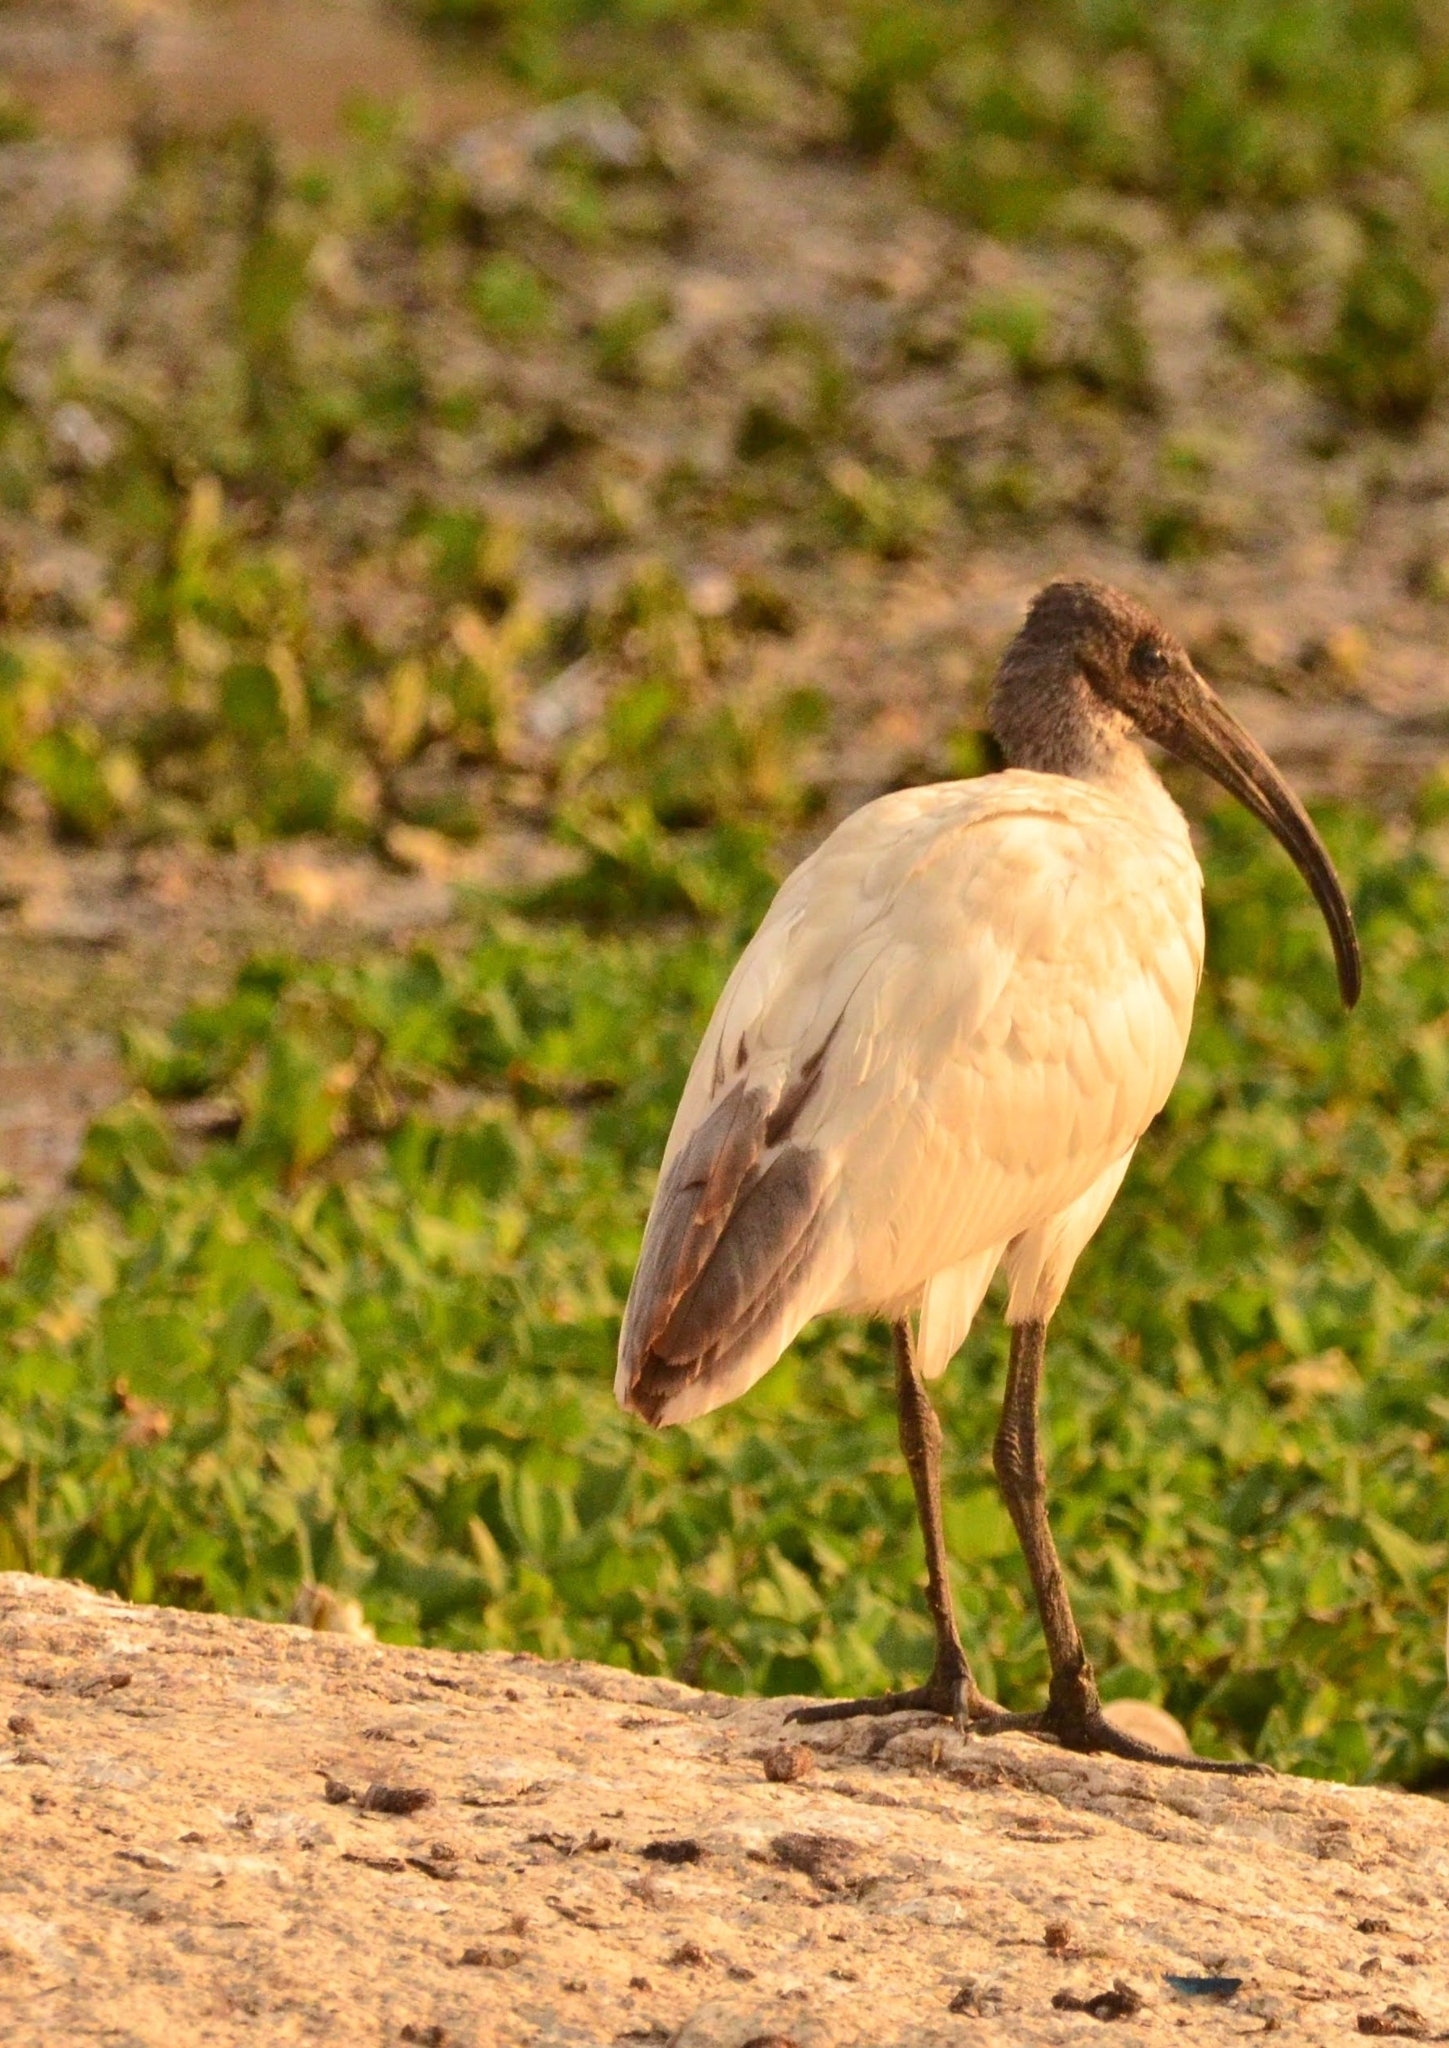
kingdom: Animalia
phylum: Chordata
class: Aves
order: Pelecaniformes
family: Threskiornithidae
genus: Threskiornis
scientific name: Threskiornis melanocephalus
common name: Black-headed ibis
